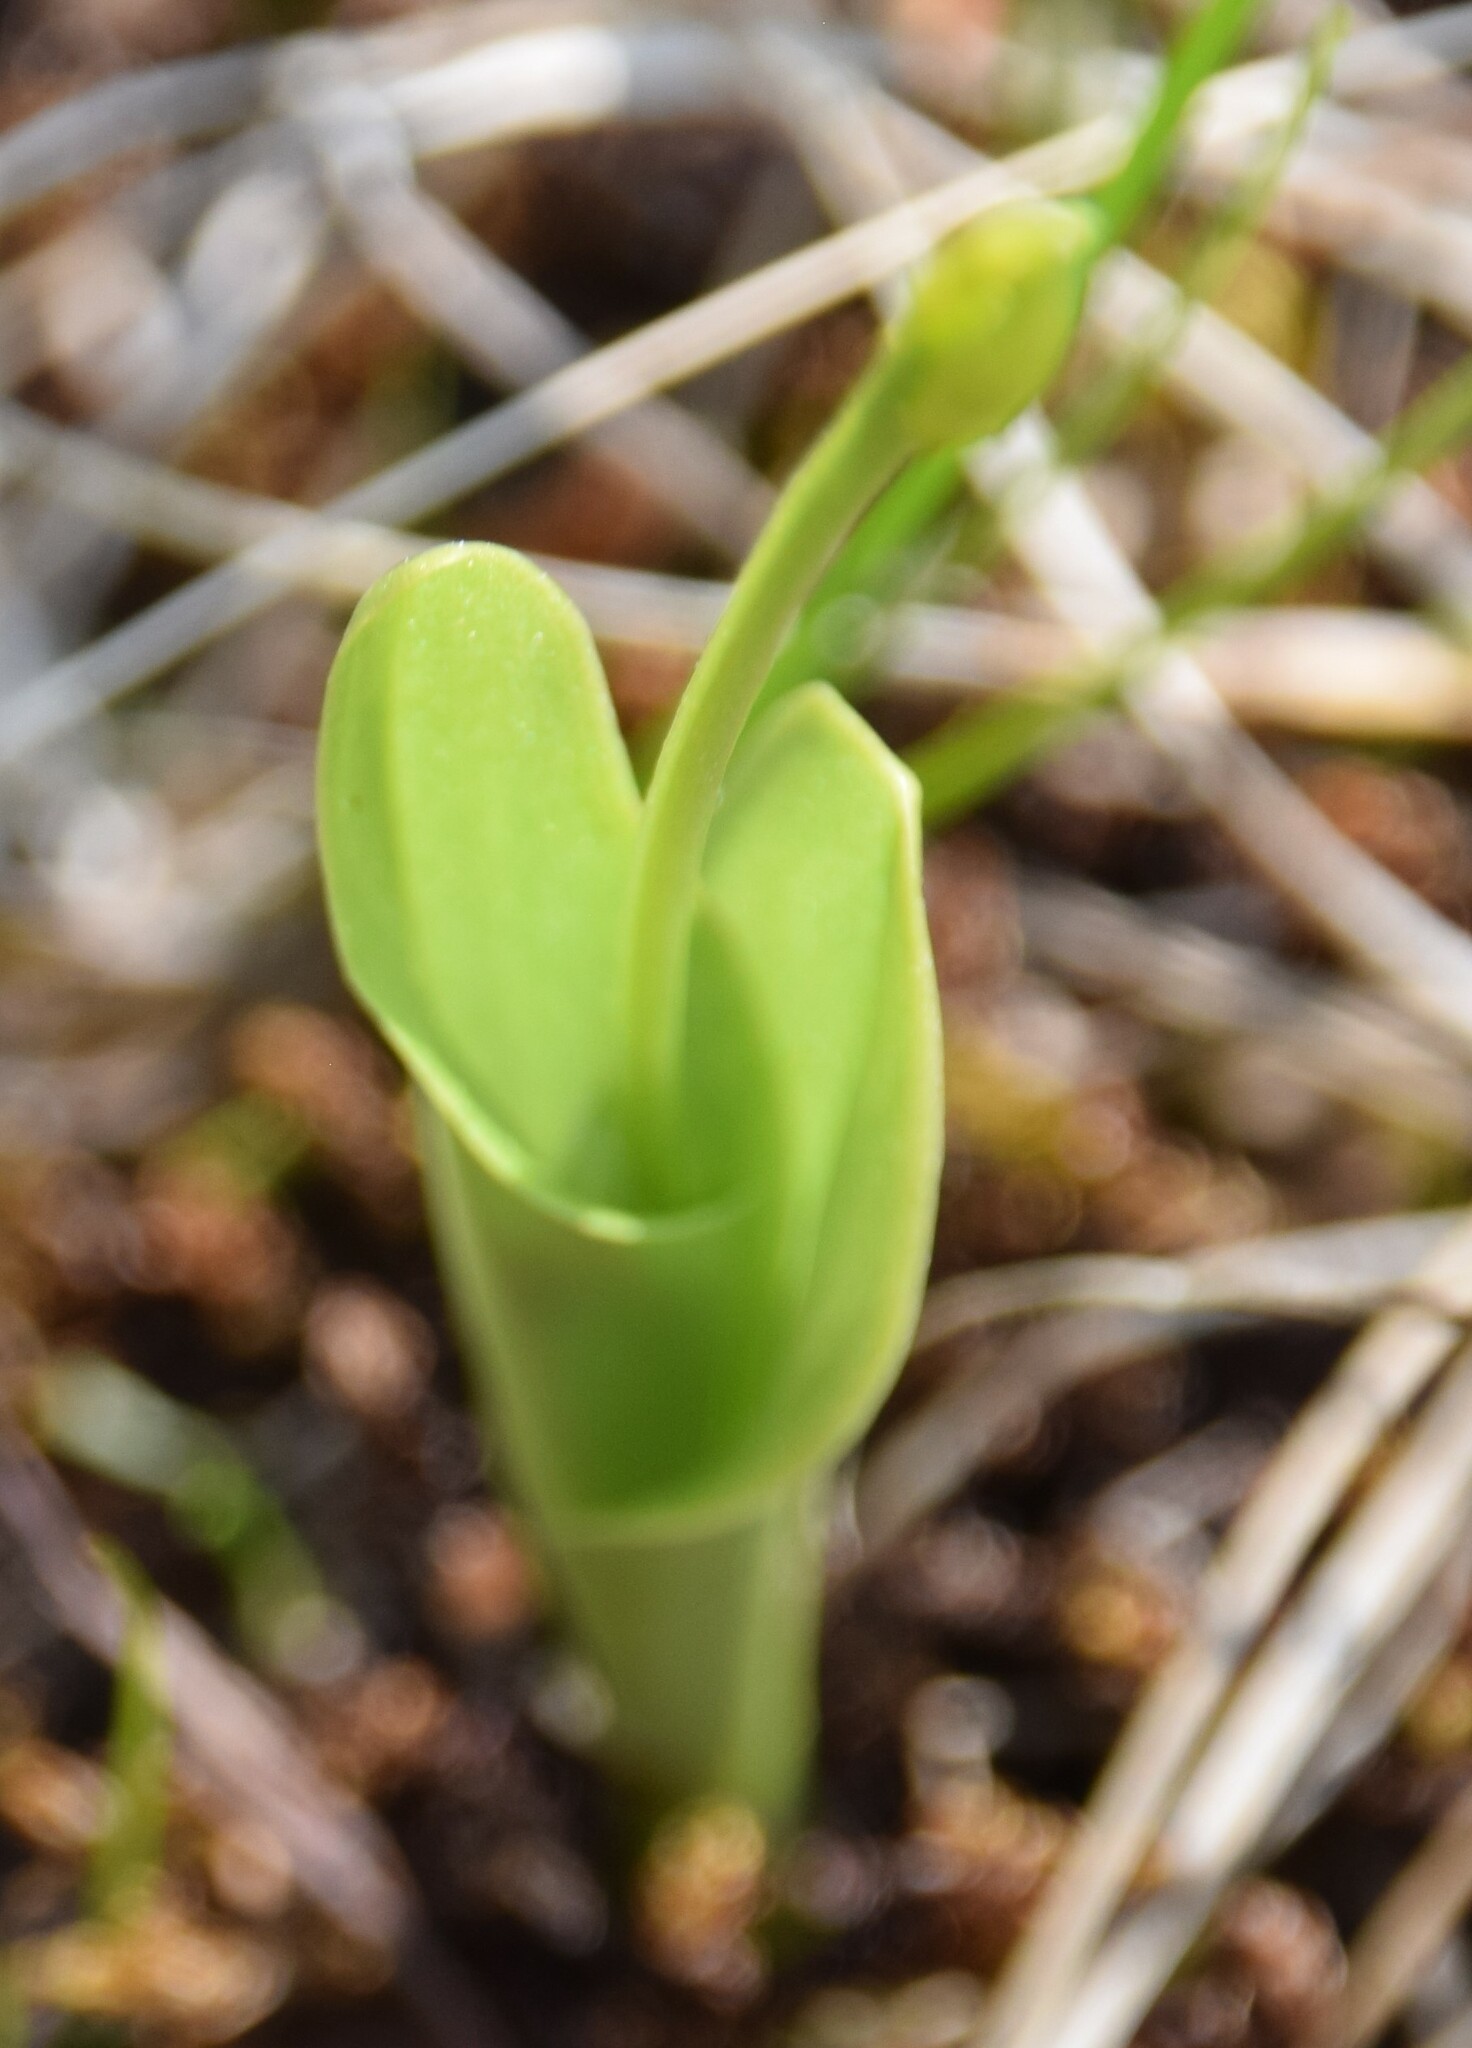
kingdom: Animalia
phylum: Arthropoda
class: Insecta
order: Coleoptera
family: Curculionidae
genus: Liparis
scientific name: Liparis loeselii
